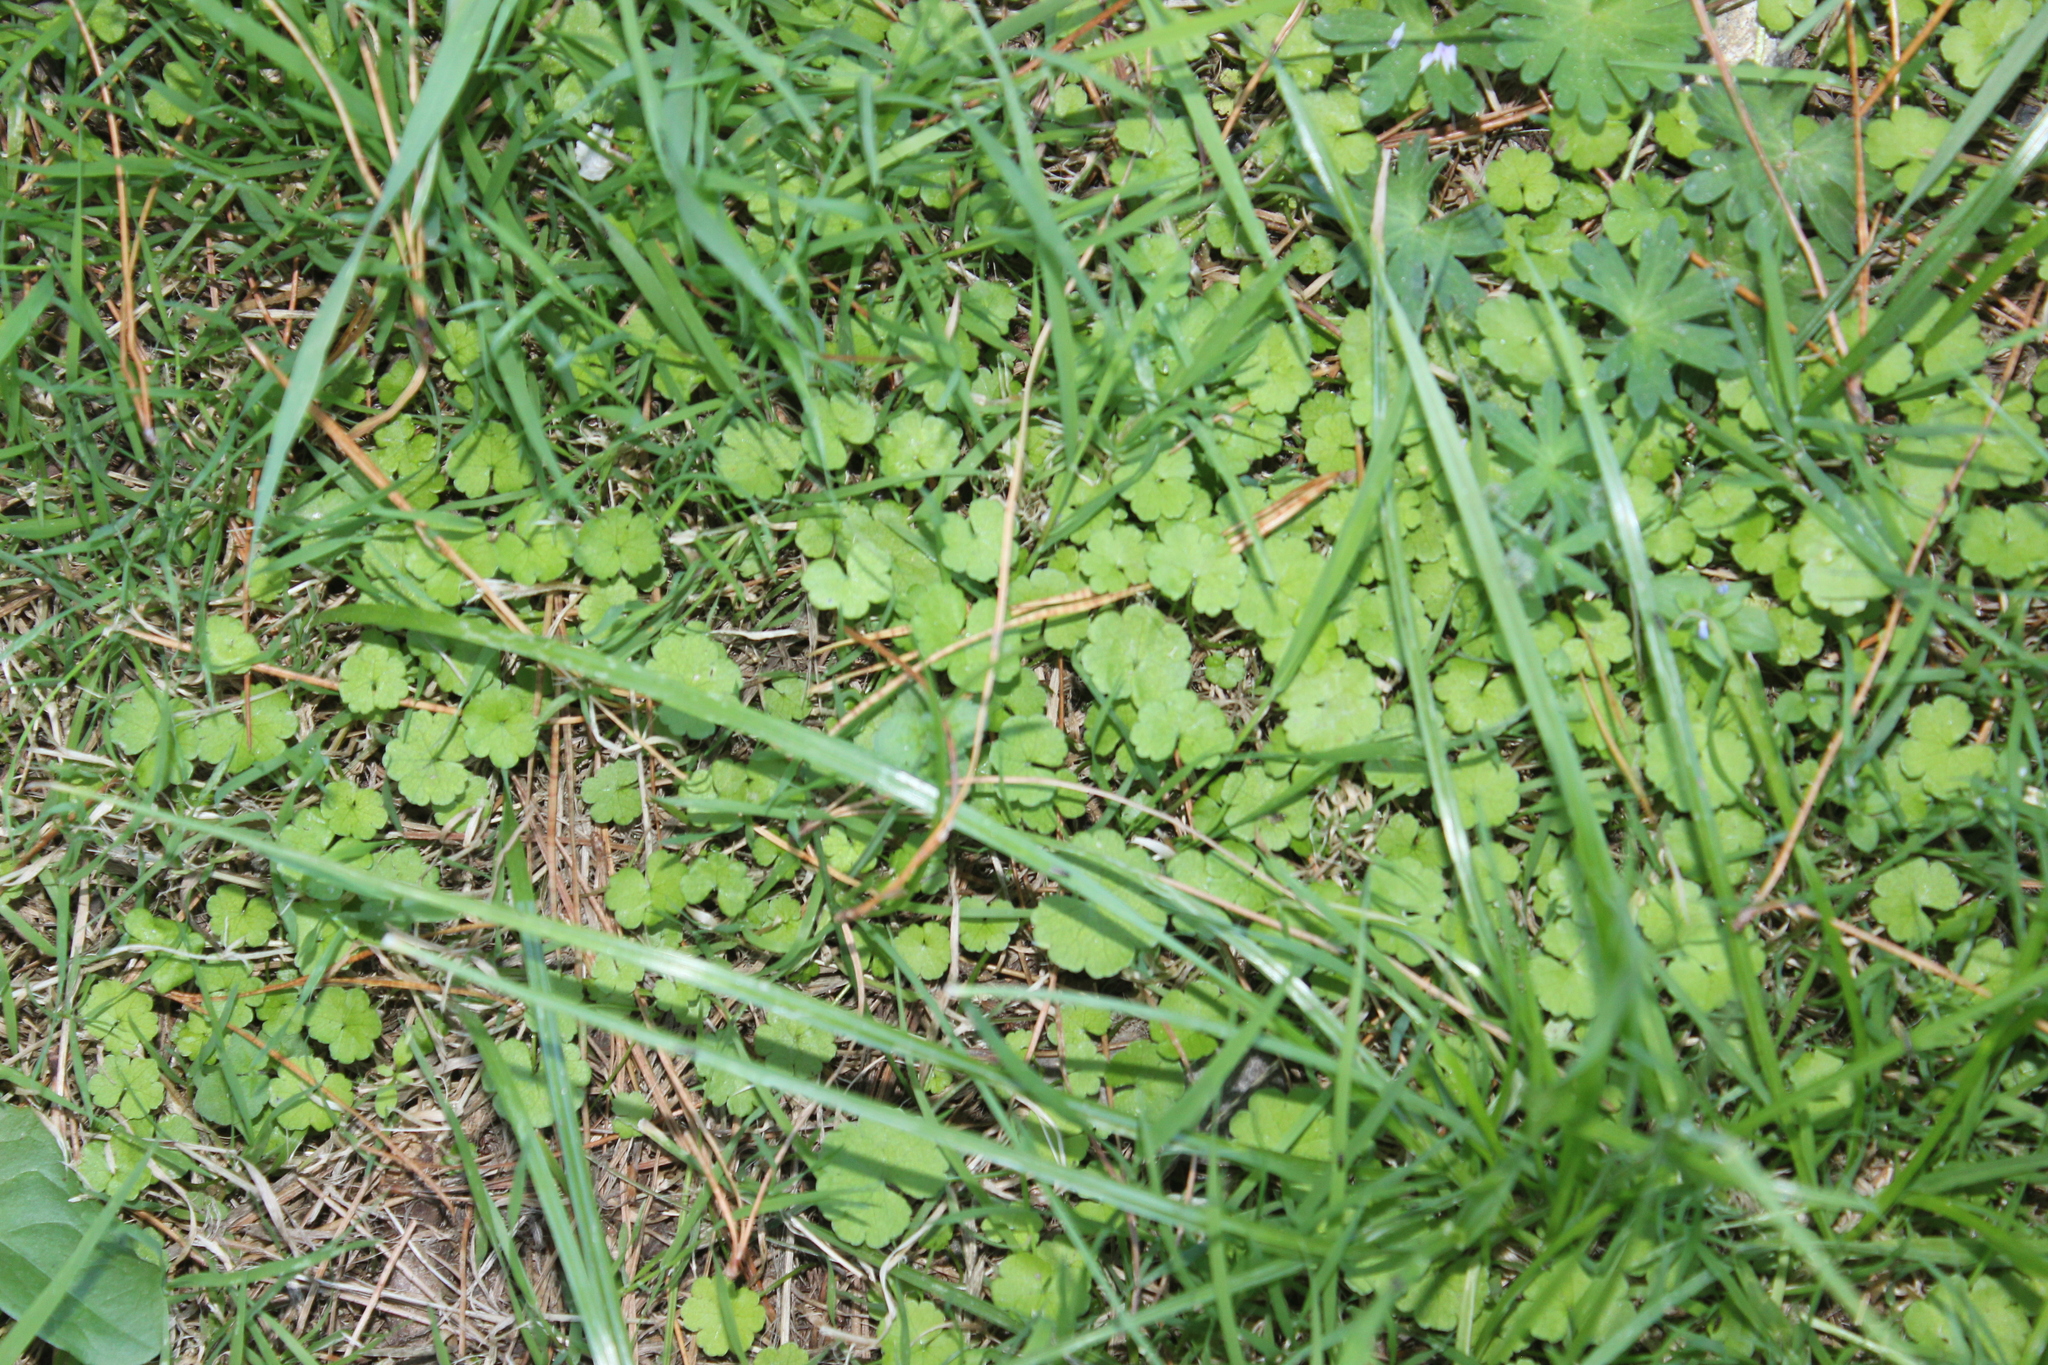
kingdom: Plantae
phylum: Tracheophyta
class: Magnoliopsida
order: Apiales
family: Araliaceae
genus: Hydrocotyle
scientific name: Hydrocotyle heteromeria
